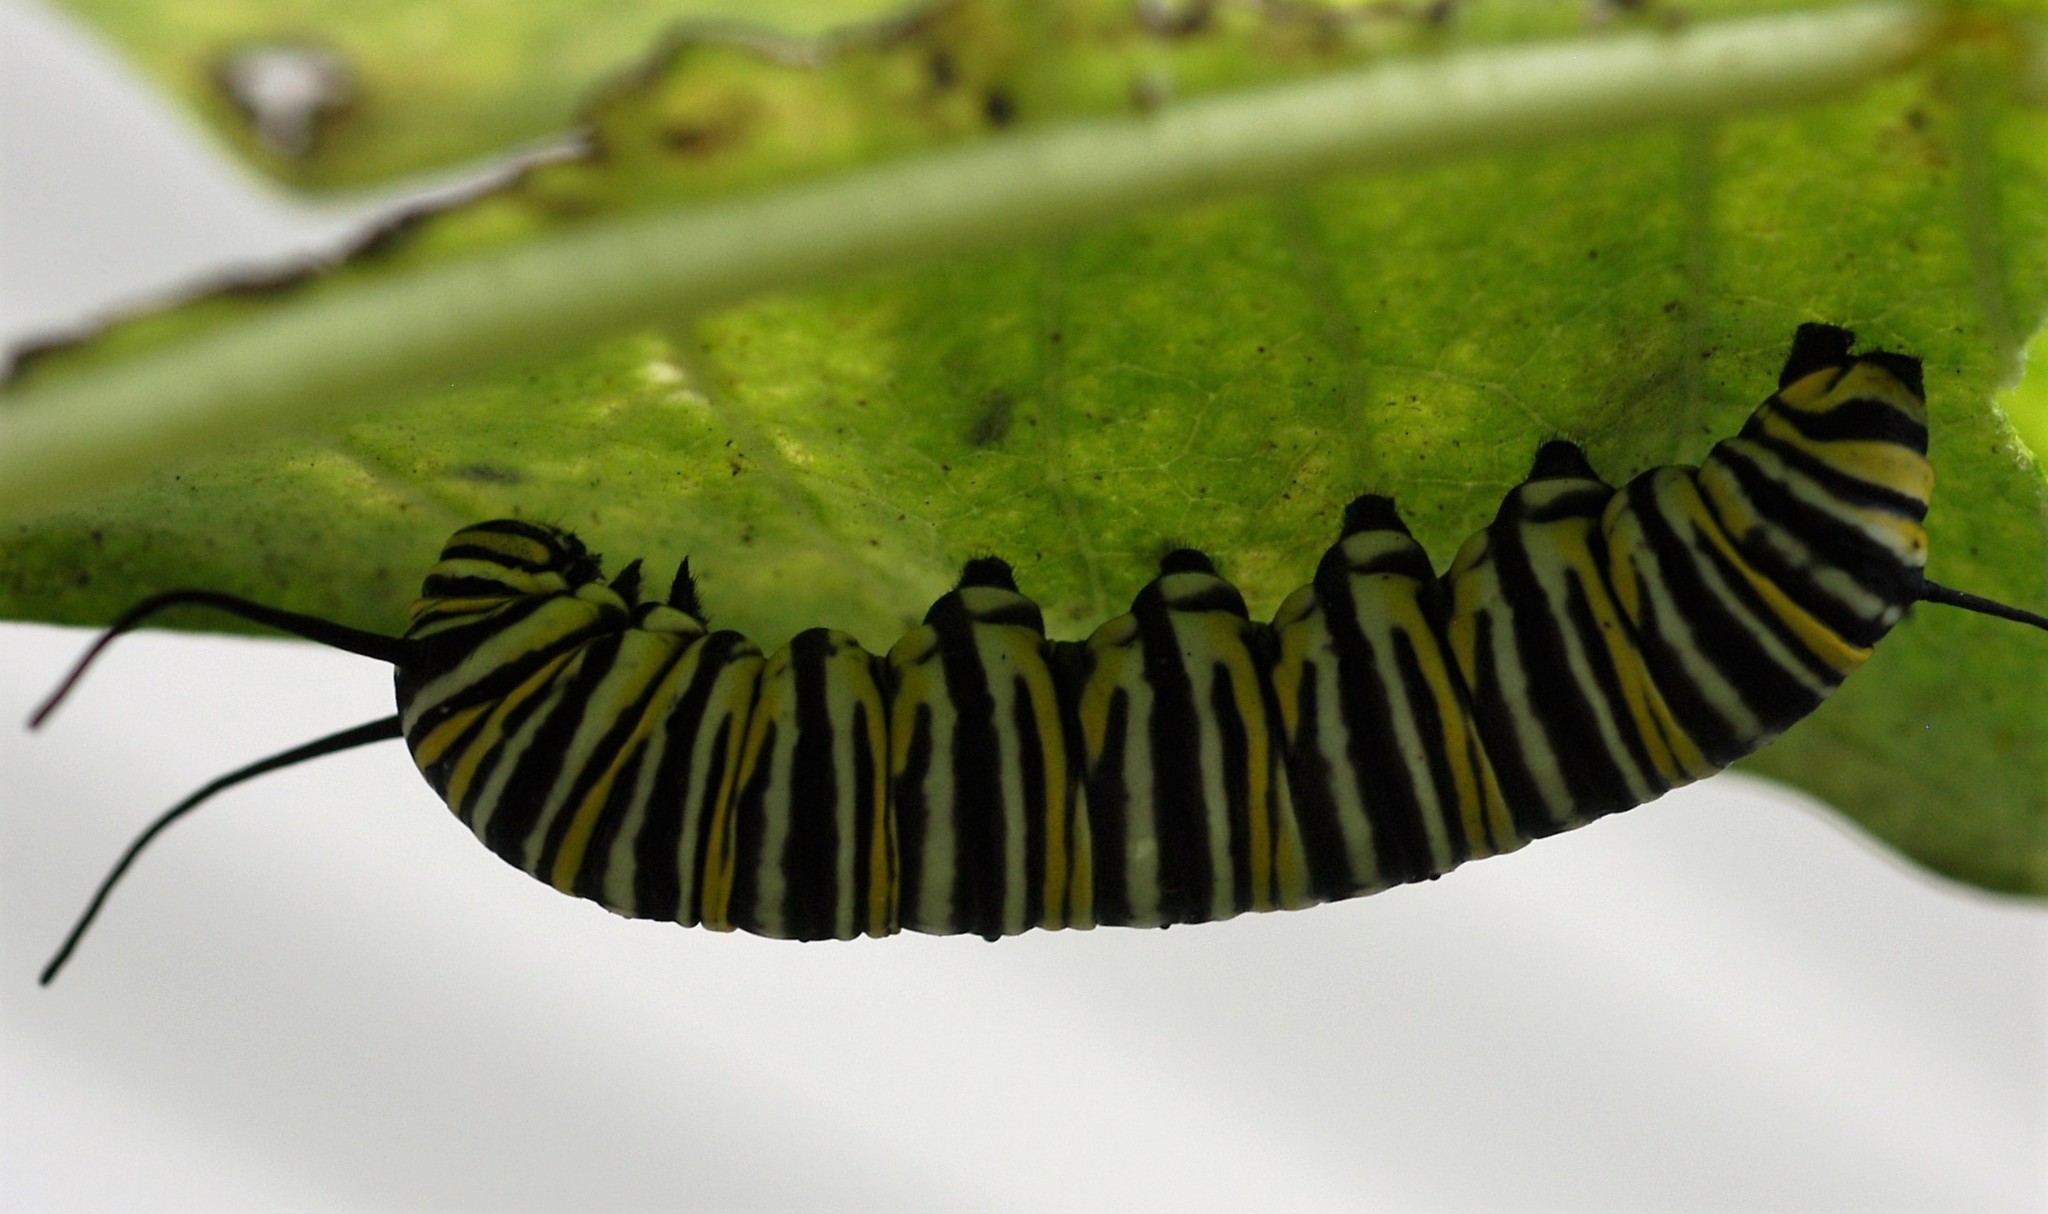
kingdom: Animalia
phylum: Arthropoda
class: Insecta
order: Lepidoptera
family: Nymphalidae
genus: Danaus
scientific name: Danaus plexippus
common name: Monarch
